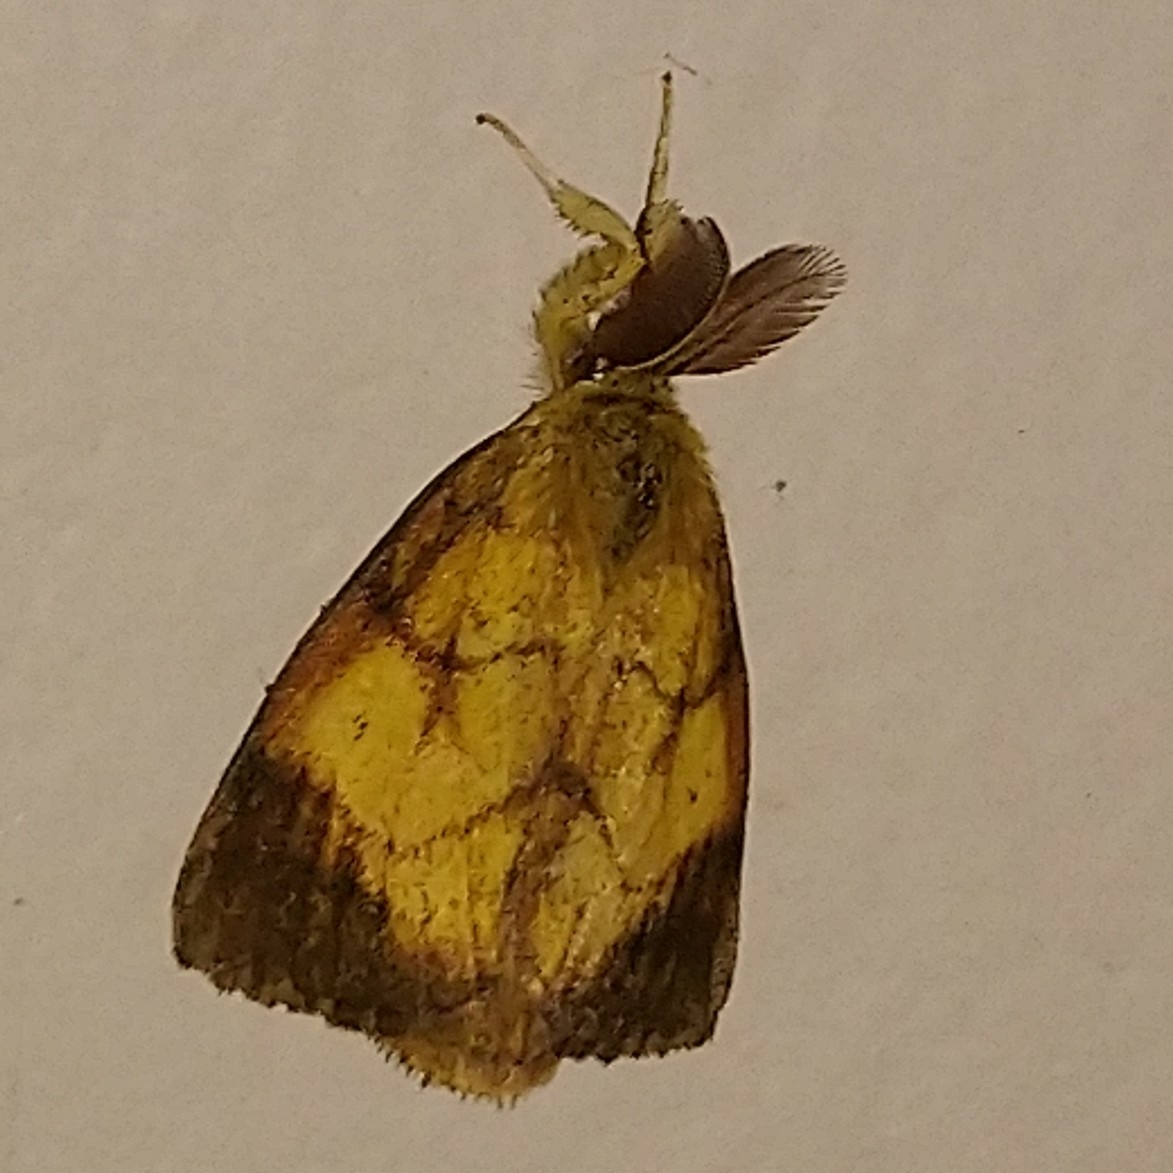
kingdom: Animalia
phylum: Arthropoda
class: Insecta
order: Lepidoptera
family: Erebidae
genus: Aroa
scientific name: Aroa discalis
